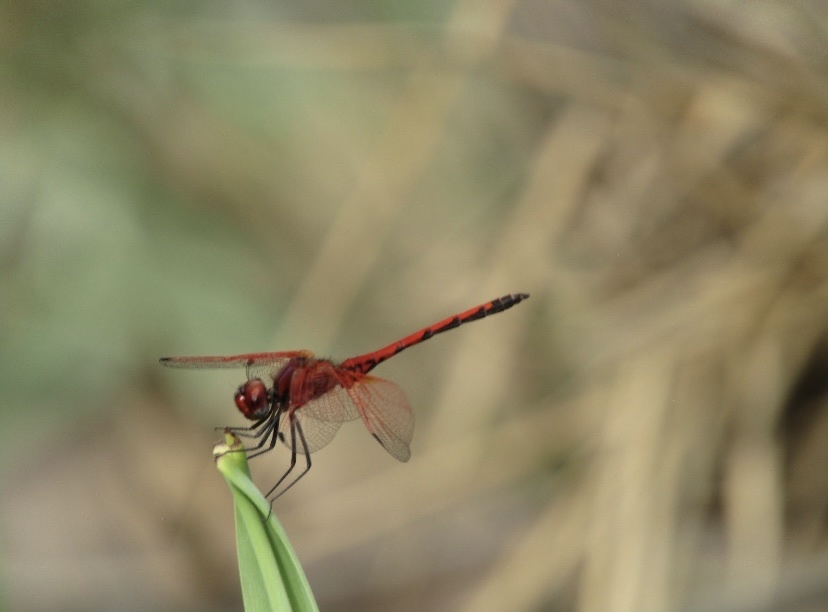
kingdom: Animalia
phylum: Arthropoda
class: Insecta
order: Odonata
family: Libellulidae
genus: Trithemis
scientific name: Trithemis arteriosa
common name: Red-veined dropwing
